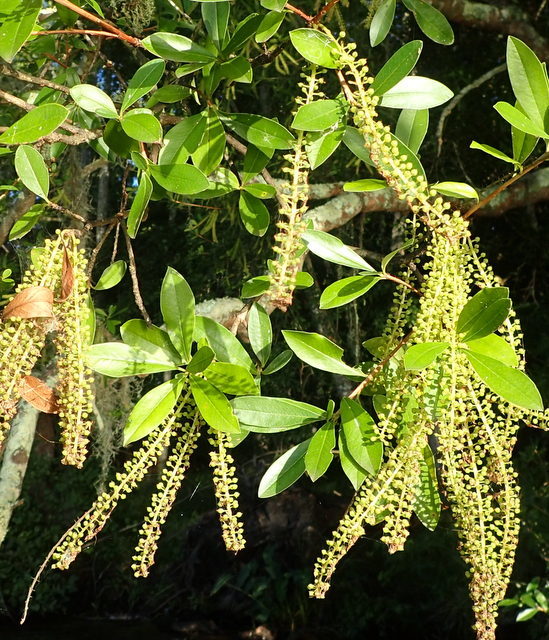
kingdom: Plantae
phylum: Tracheophyta
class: Magnoliopsida
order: Ericales
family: Cyrillaceae
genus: Cyrilla
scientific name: Cyrilla racemiflora
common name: Black titi
